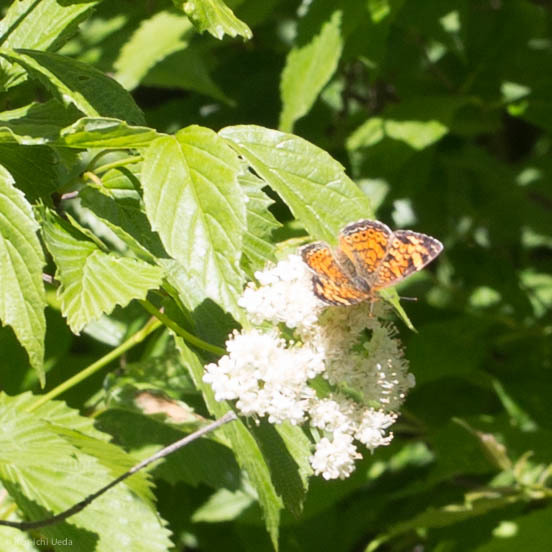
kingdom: Animalia
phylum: Arthropoda
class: Insecta
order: Lepidoptera
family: Nymphalidae
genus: Phyciodes
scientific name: Phyciodes tharos
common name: Pearl crescent
